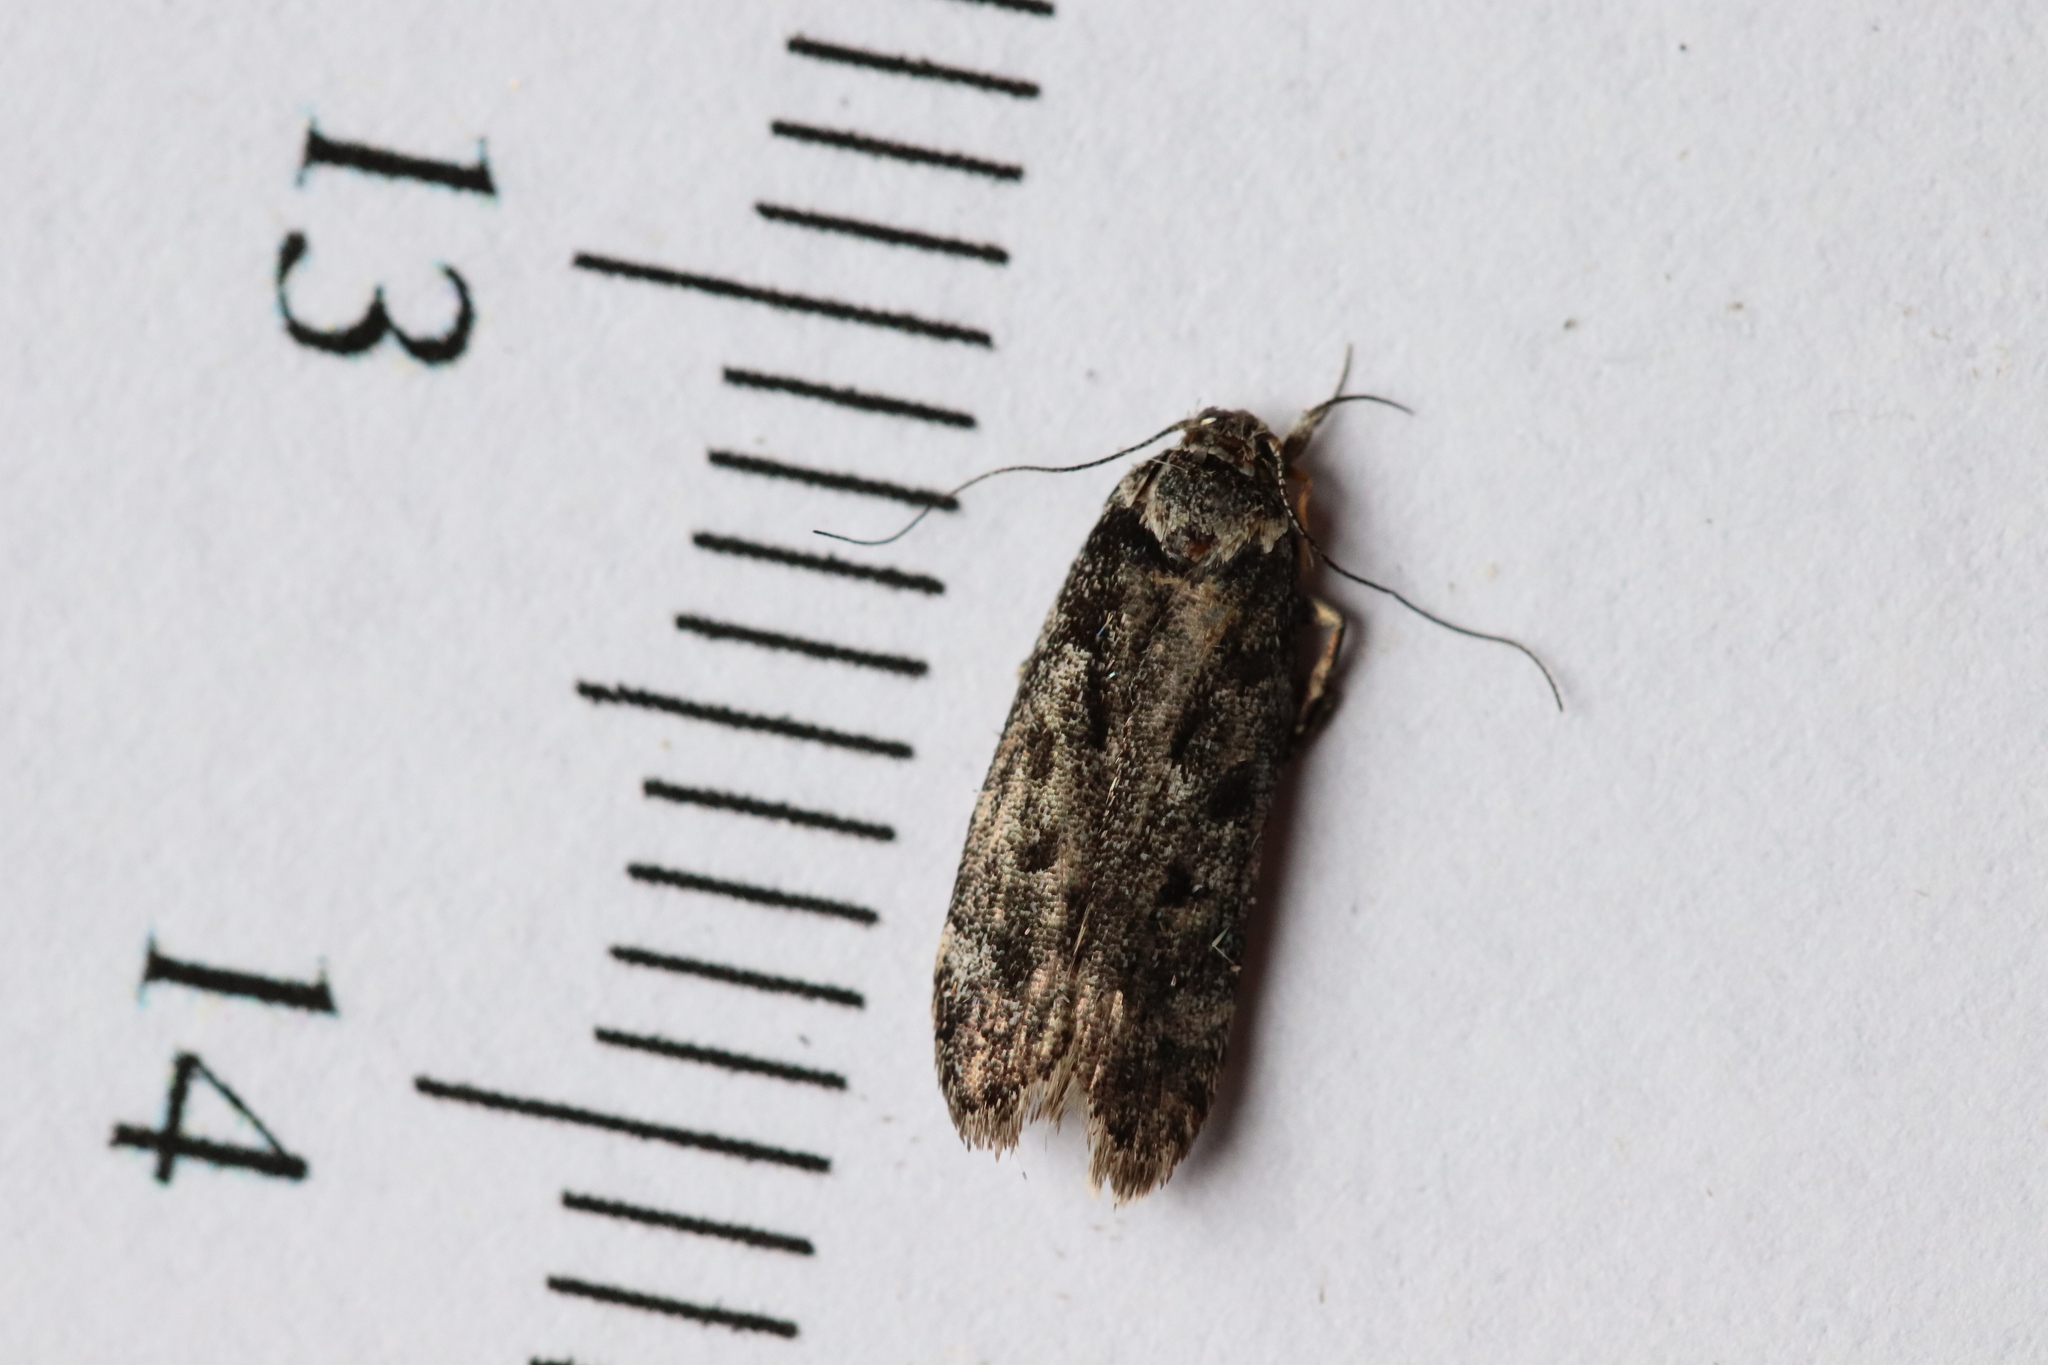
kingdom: Animalia
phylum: Arthropoda
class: Insecta
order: Lepidoptera
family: Gelechiidae
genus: Anacampsis
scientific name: Anacampsis niveopulvella
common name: Pale-headed aspen leafroller moth
